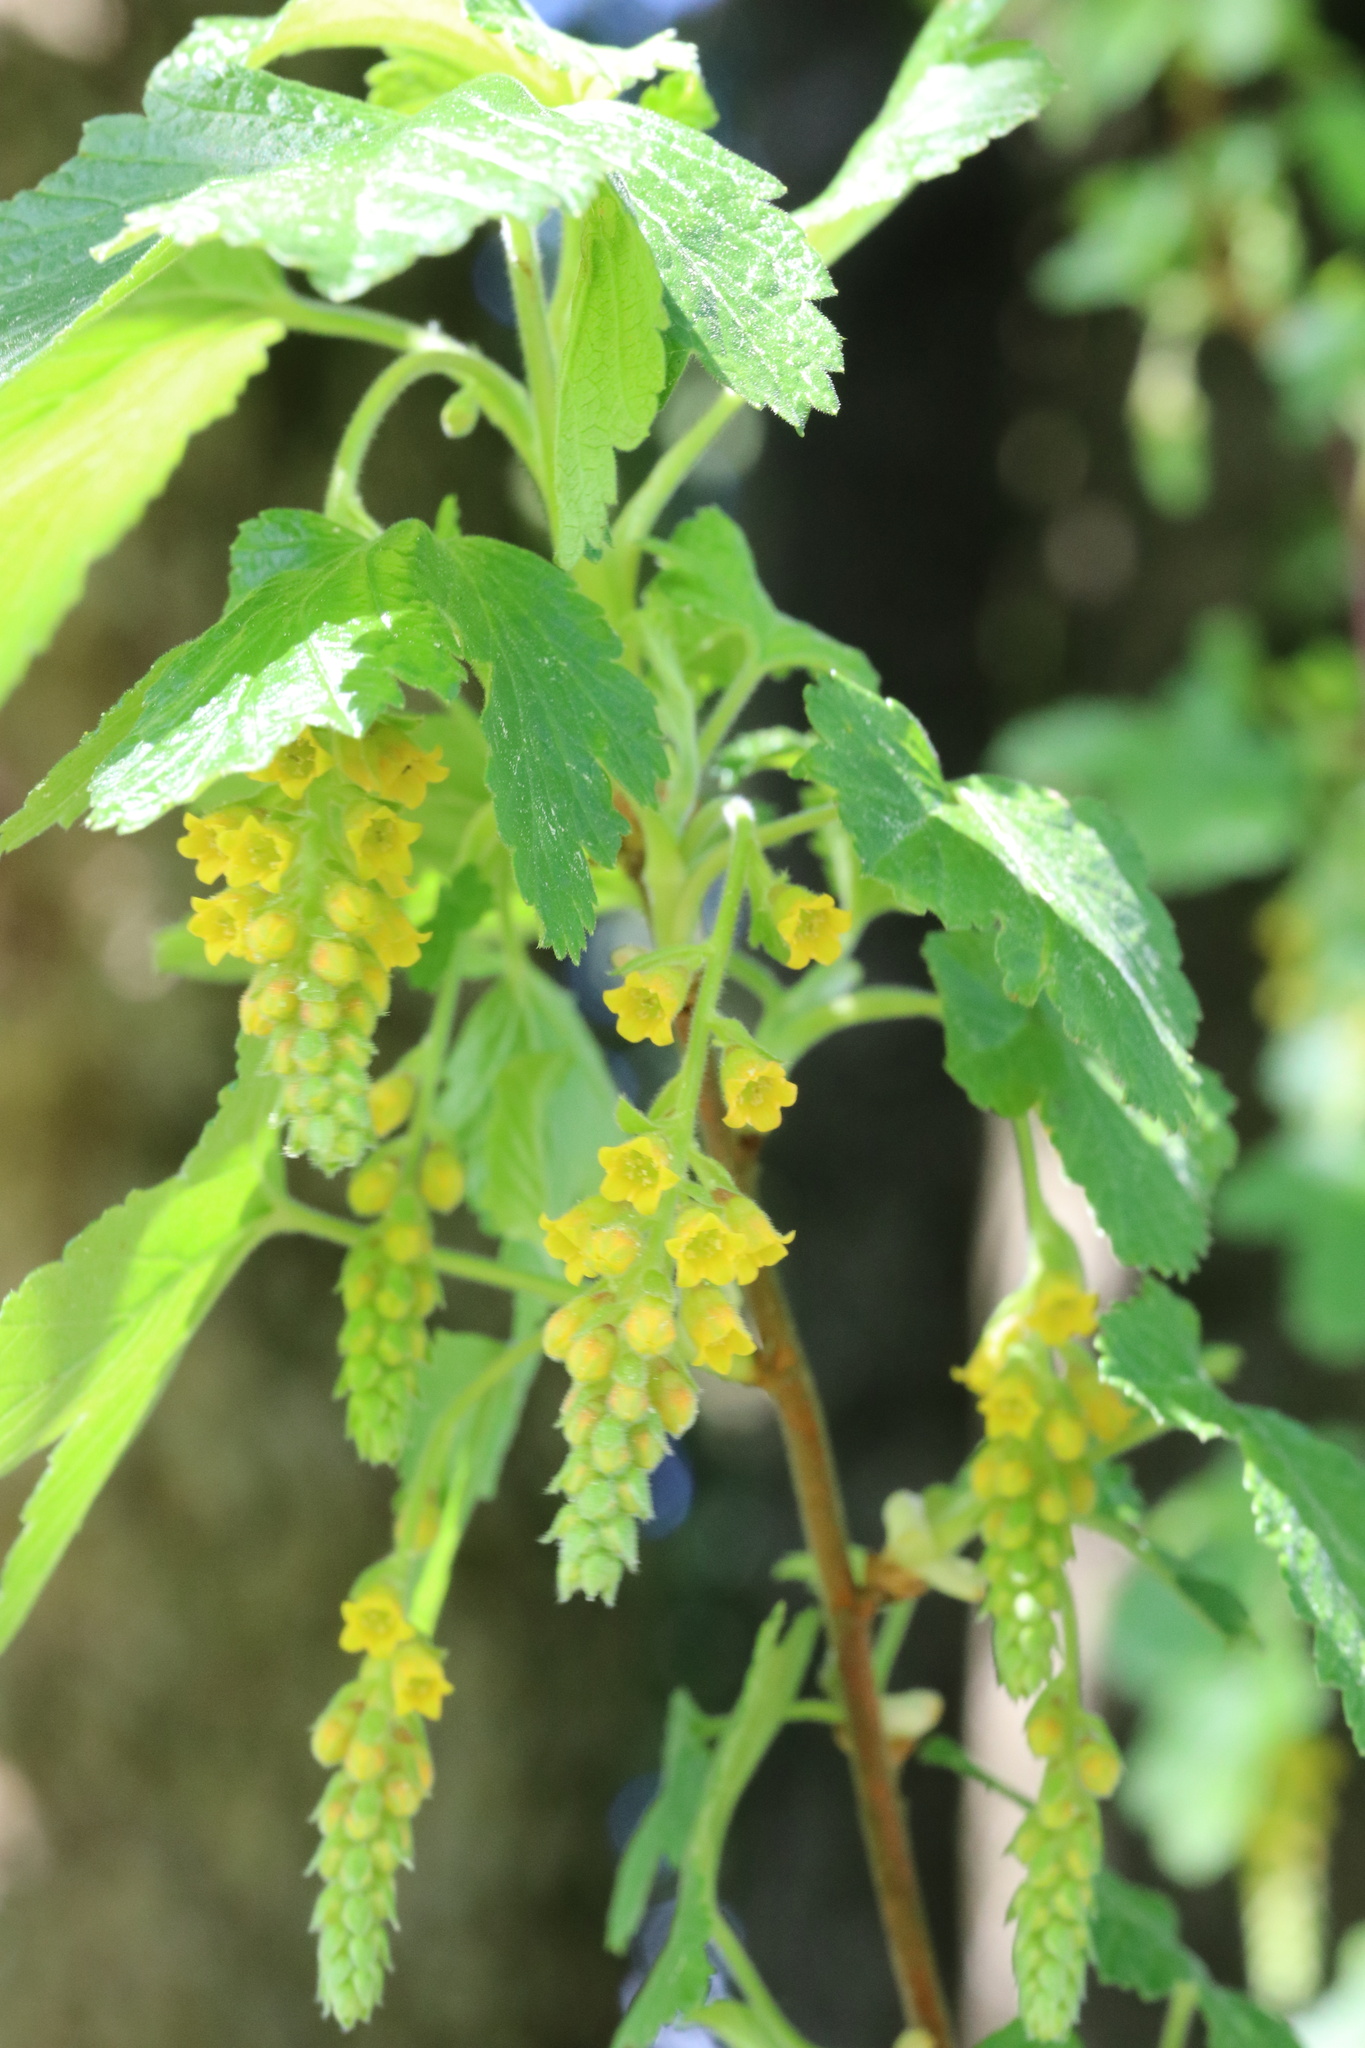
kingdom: Plantae
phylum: Tracheophyta
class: Magnoliopsida
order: Saxifragales
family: Grossulariaceae
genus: Ribes
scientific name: Ribes magellanicum
